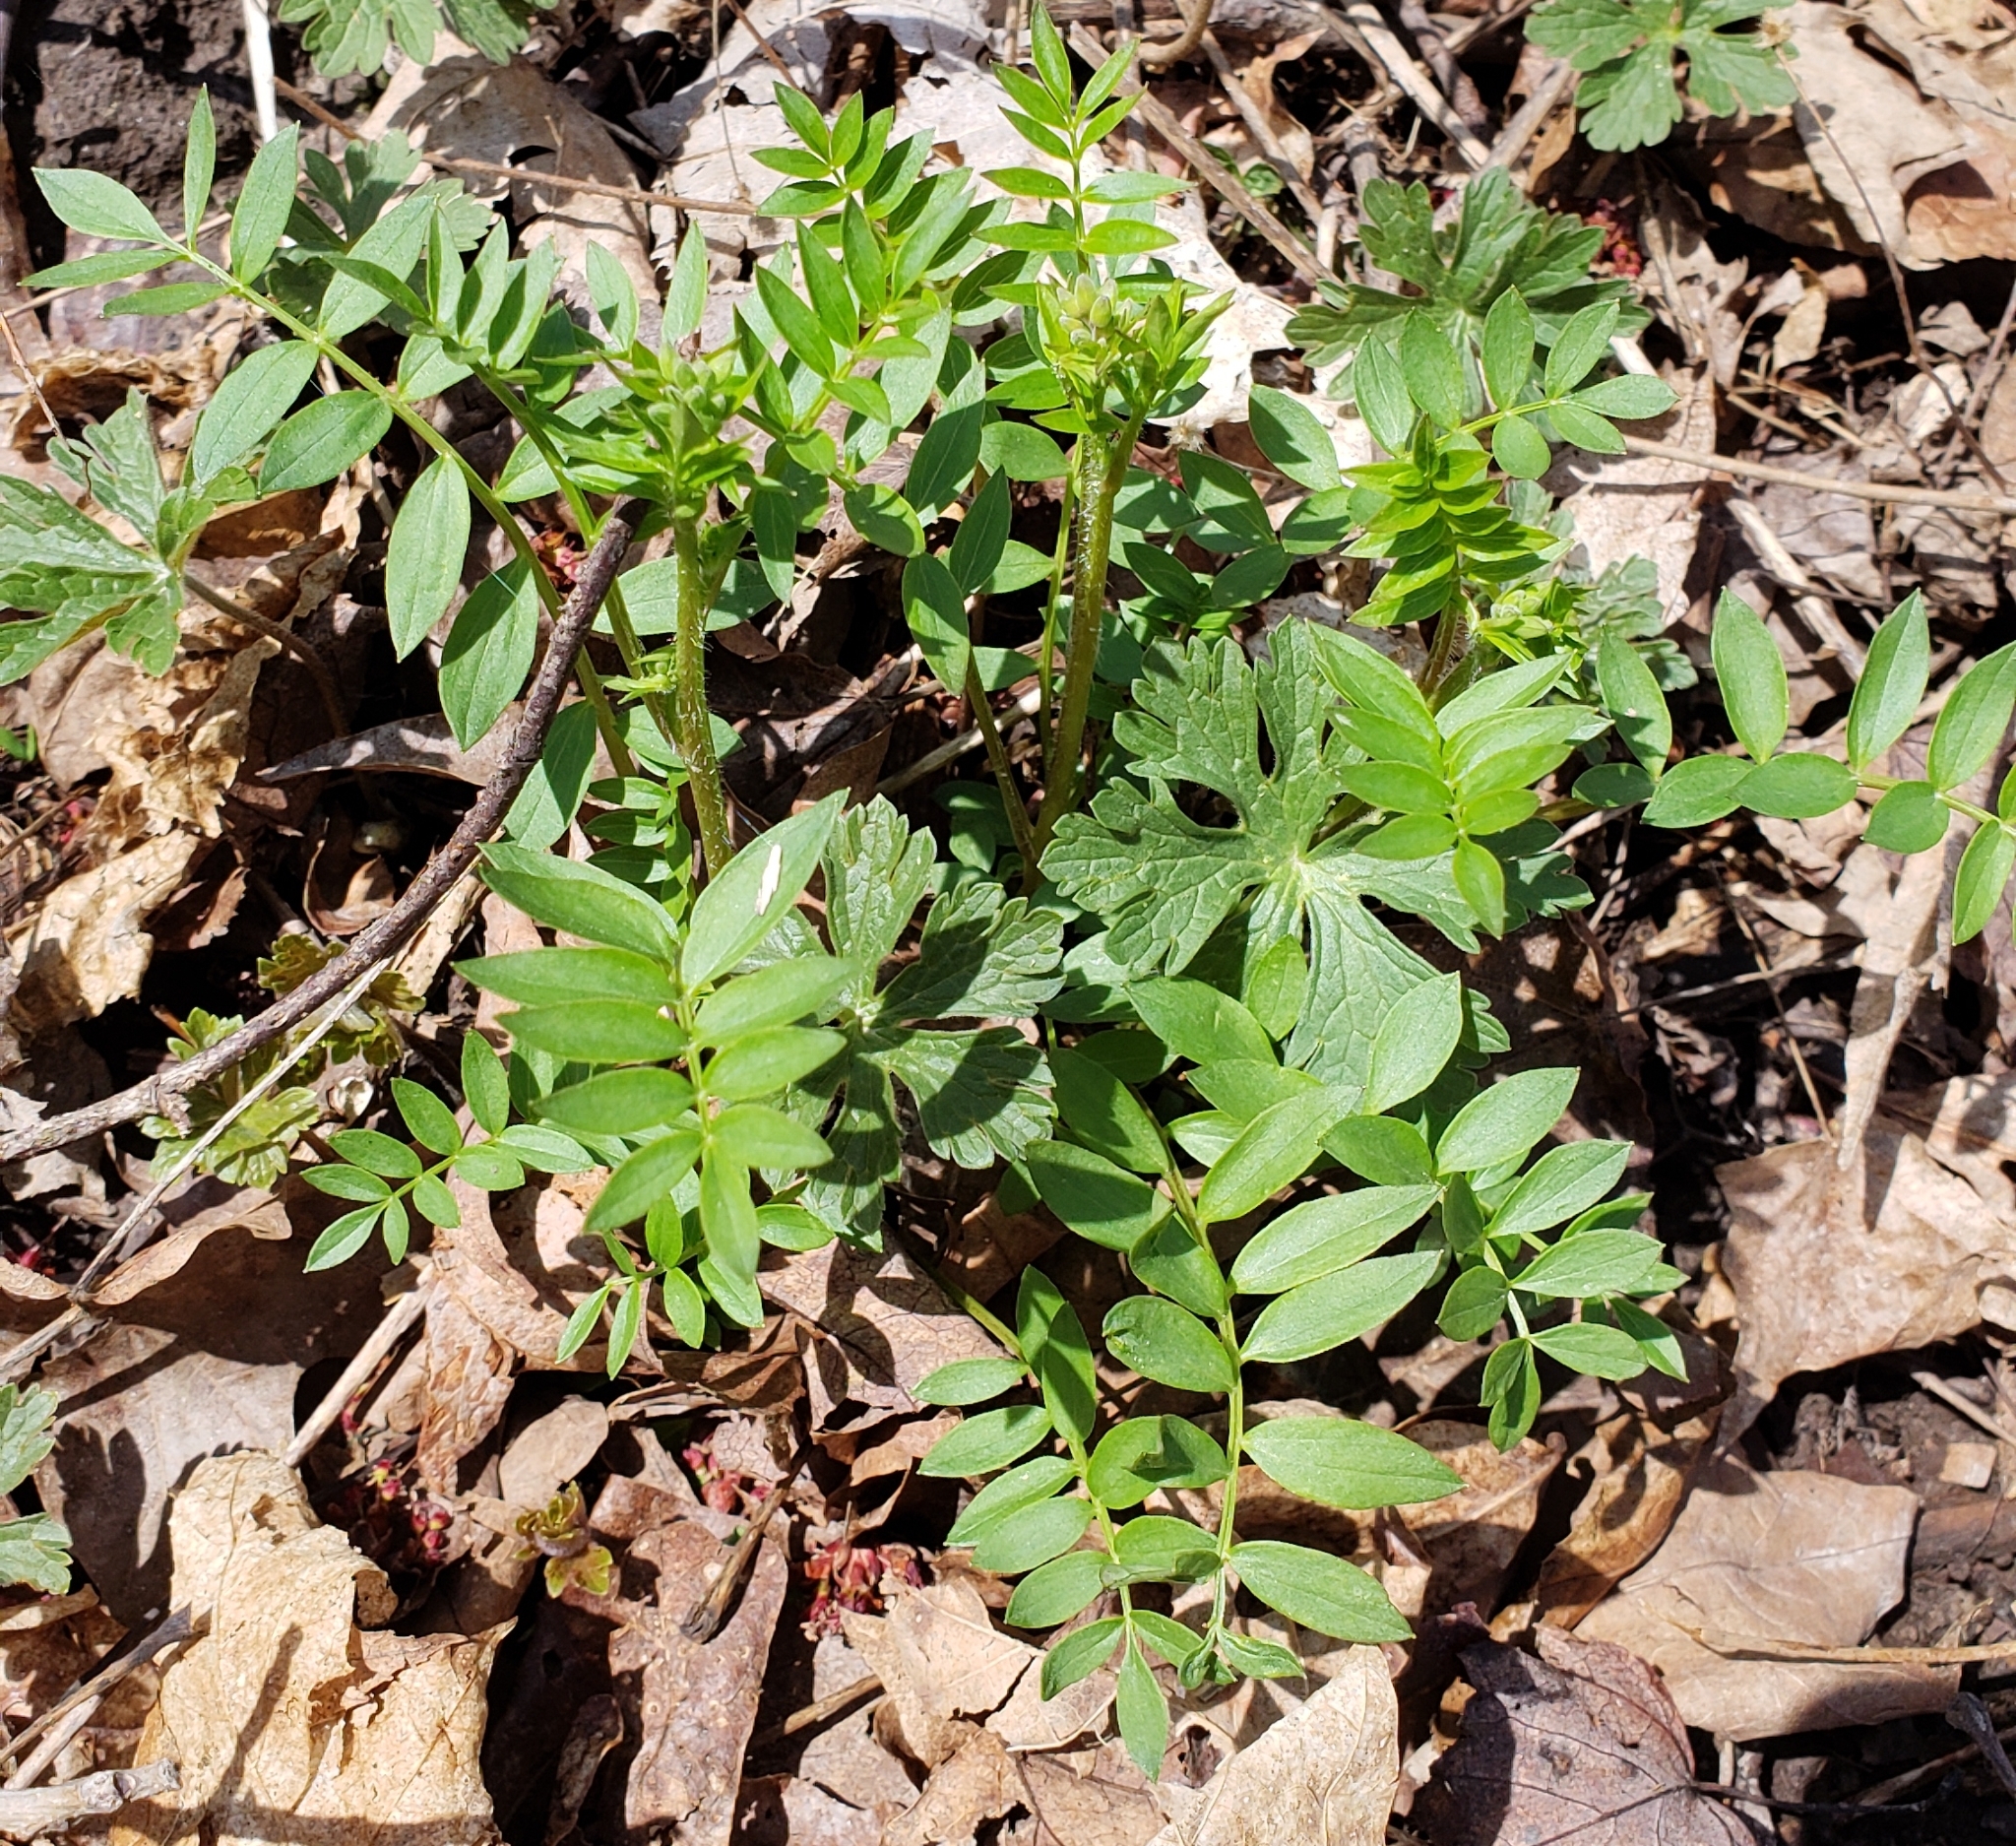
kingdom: Plantae
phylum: Tracheophyta
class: Magnoliopsida
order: Ericales
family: Polemoniaceae
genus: Polemonium
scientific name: Polemonium reptans
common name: Creeping jacob's-ladder
